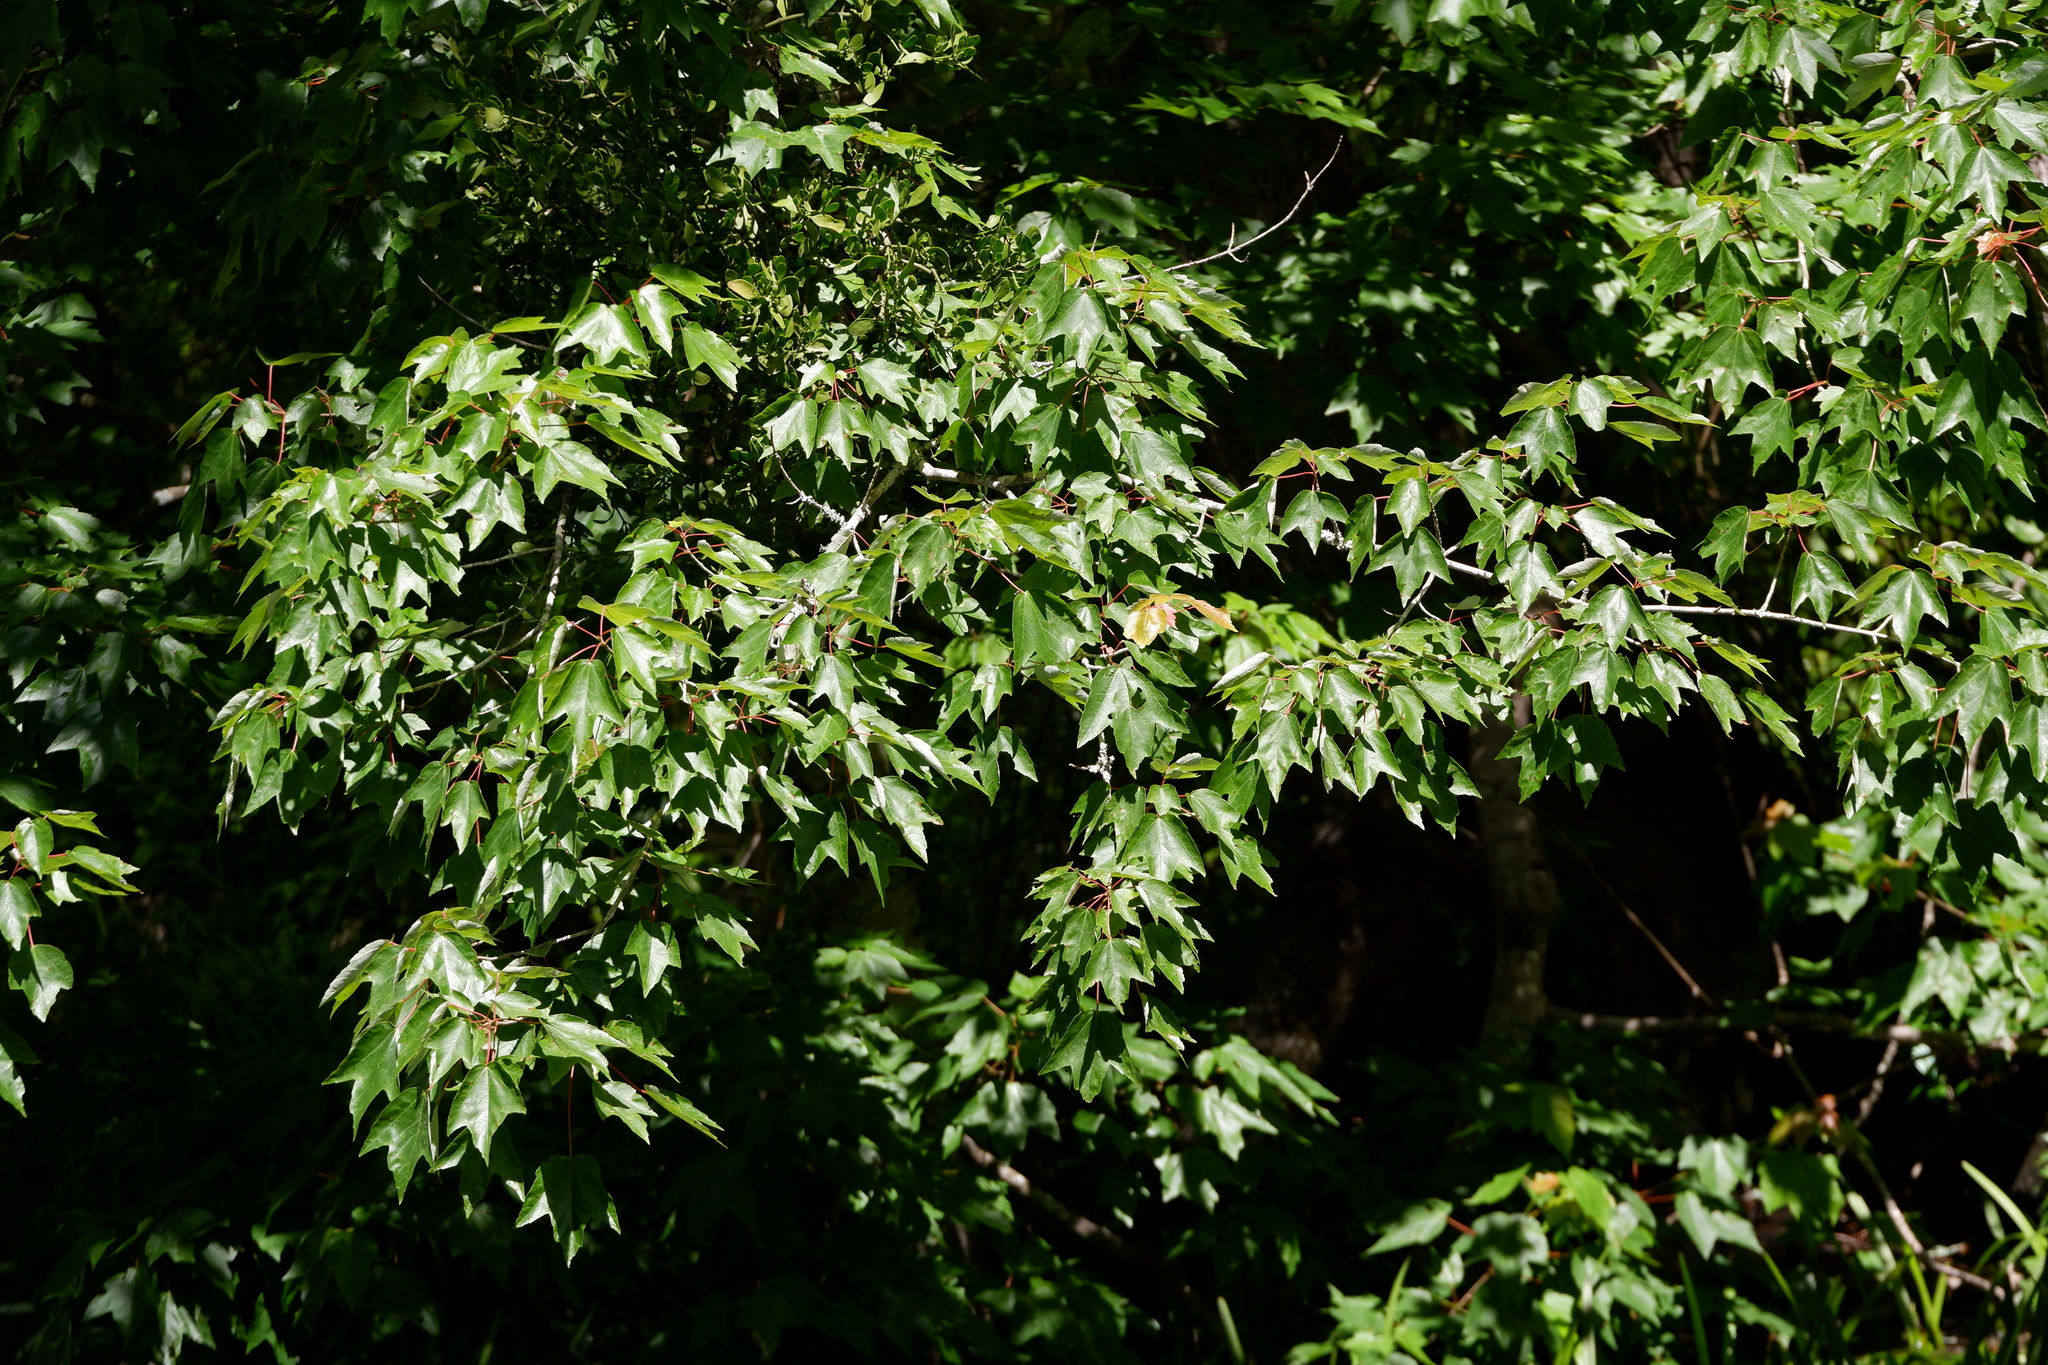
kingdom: Plantae
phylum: Tracheophyta
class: Magnoliopsida
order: Sapindales
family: Sapindaceae
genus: Acer
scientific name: Acer rubrum
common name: Red maple
